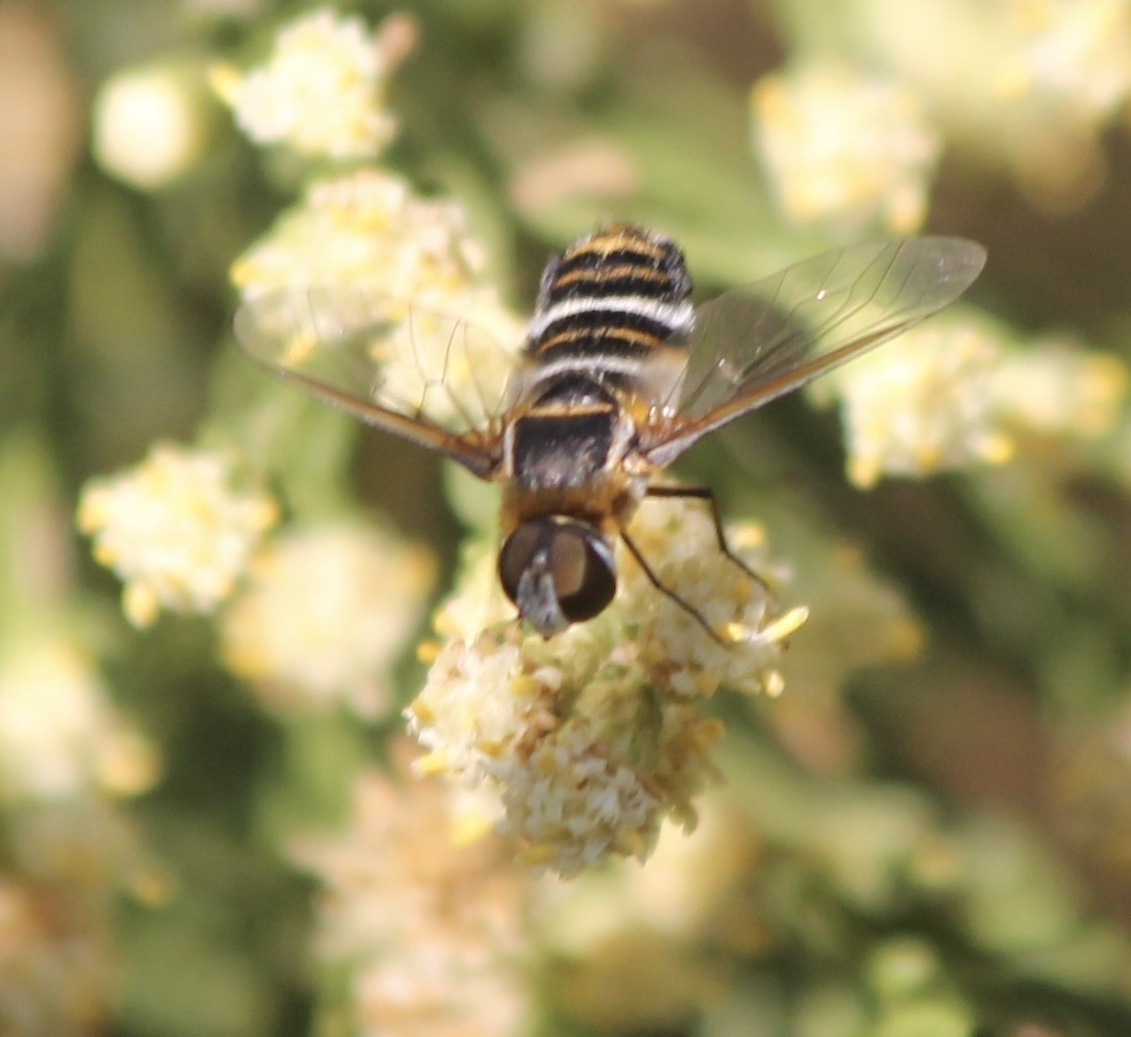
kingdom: Animalia
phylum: Arthropoda
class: Insecta
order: Diptera
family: Bombyliidae
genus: Villa
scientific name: Villa lateralis
